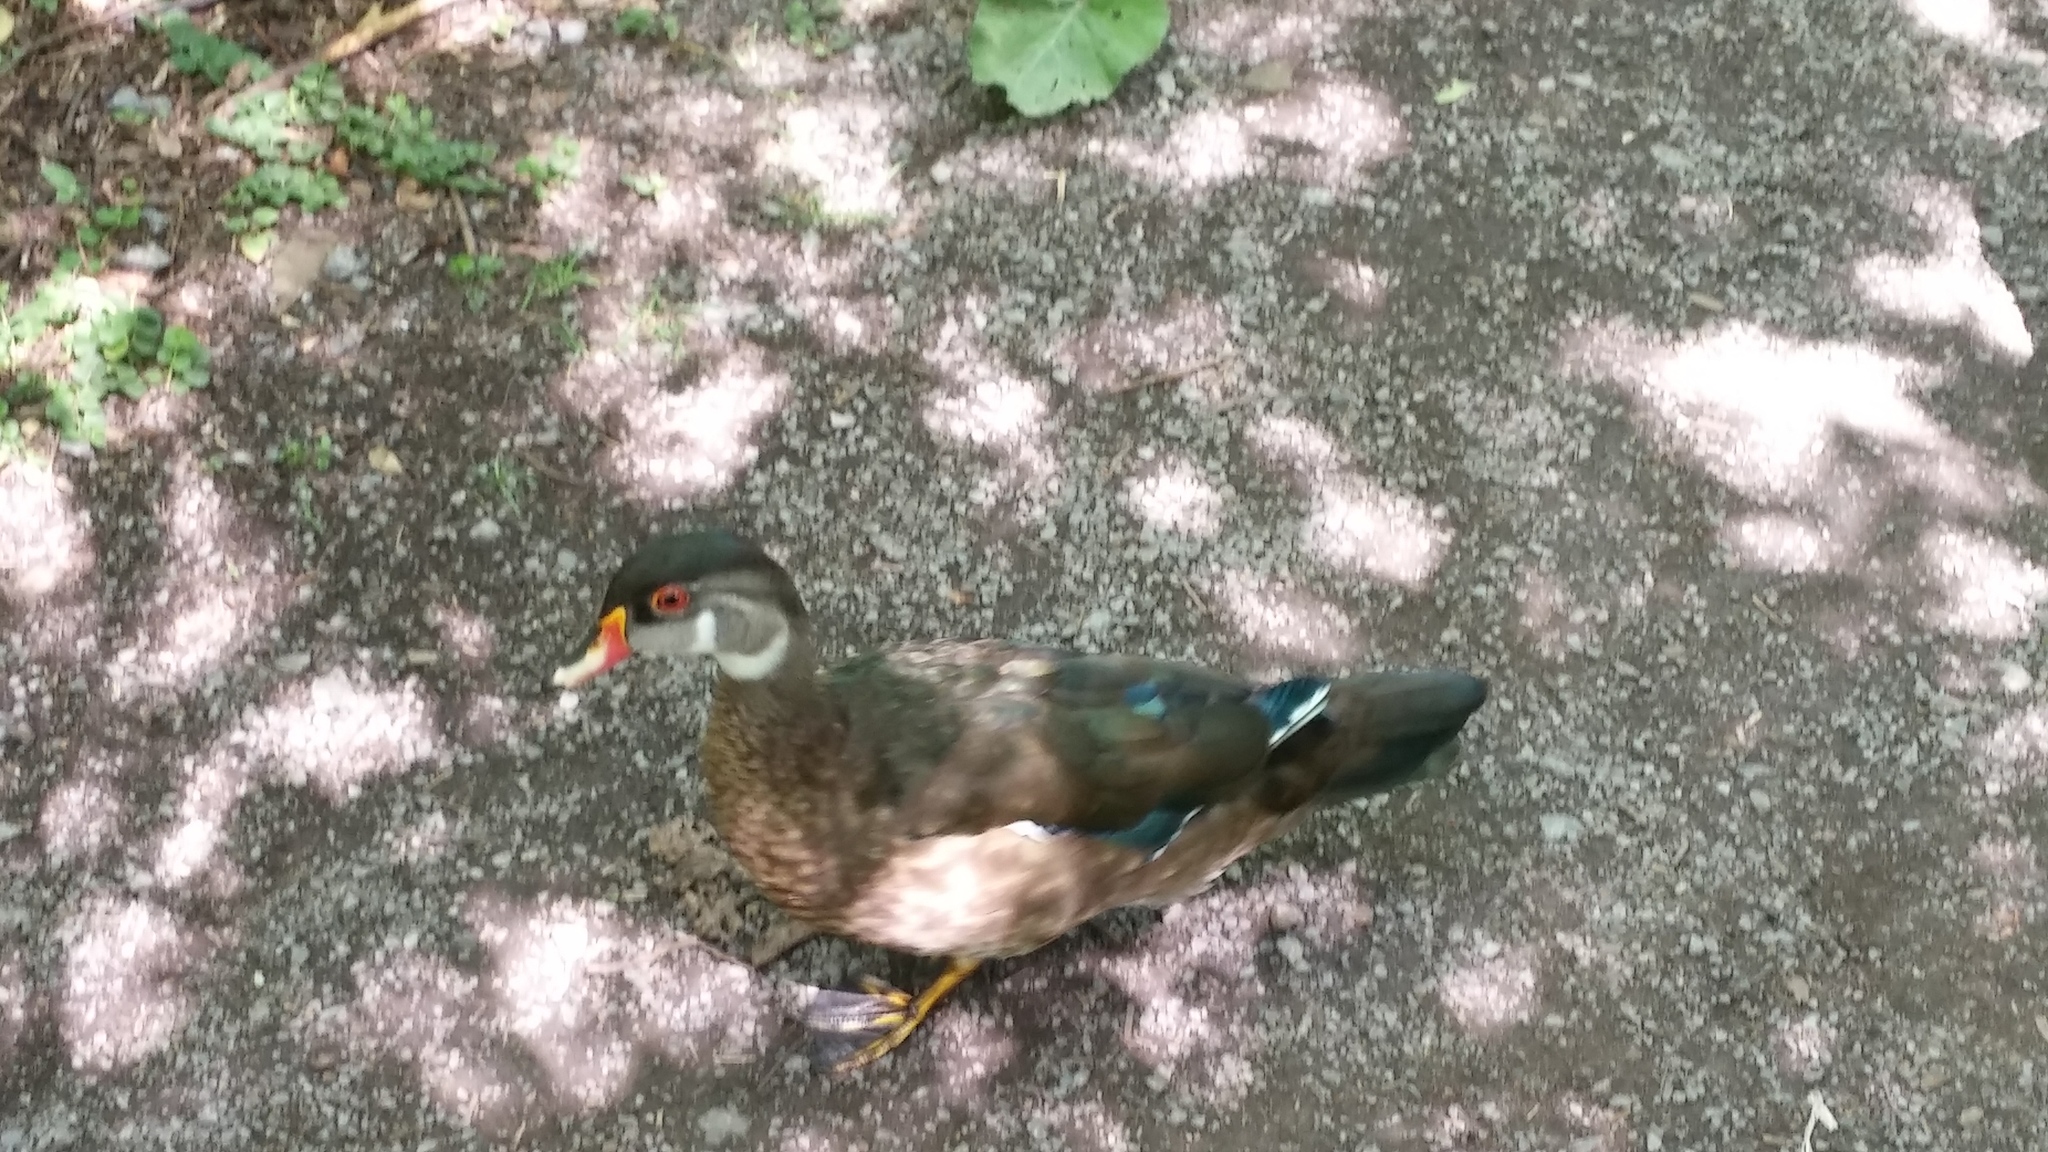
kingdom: Animalia
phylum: Chordata
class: Aves
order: Anseriformes
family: Anatidae
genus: Aix
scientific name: Aix sponsa
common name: Wood duck
